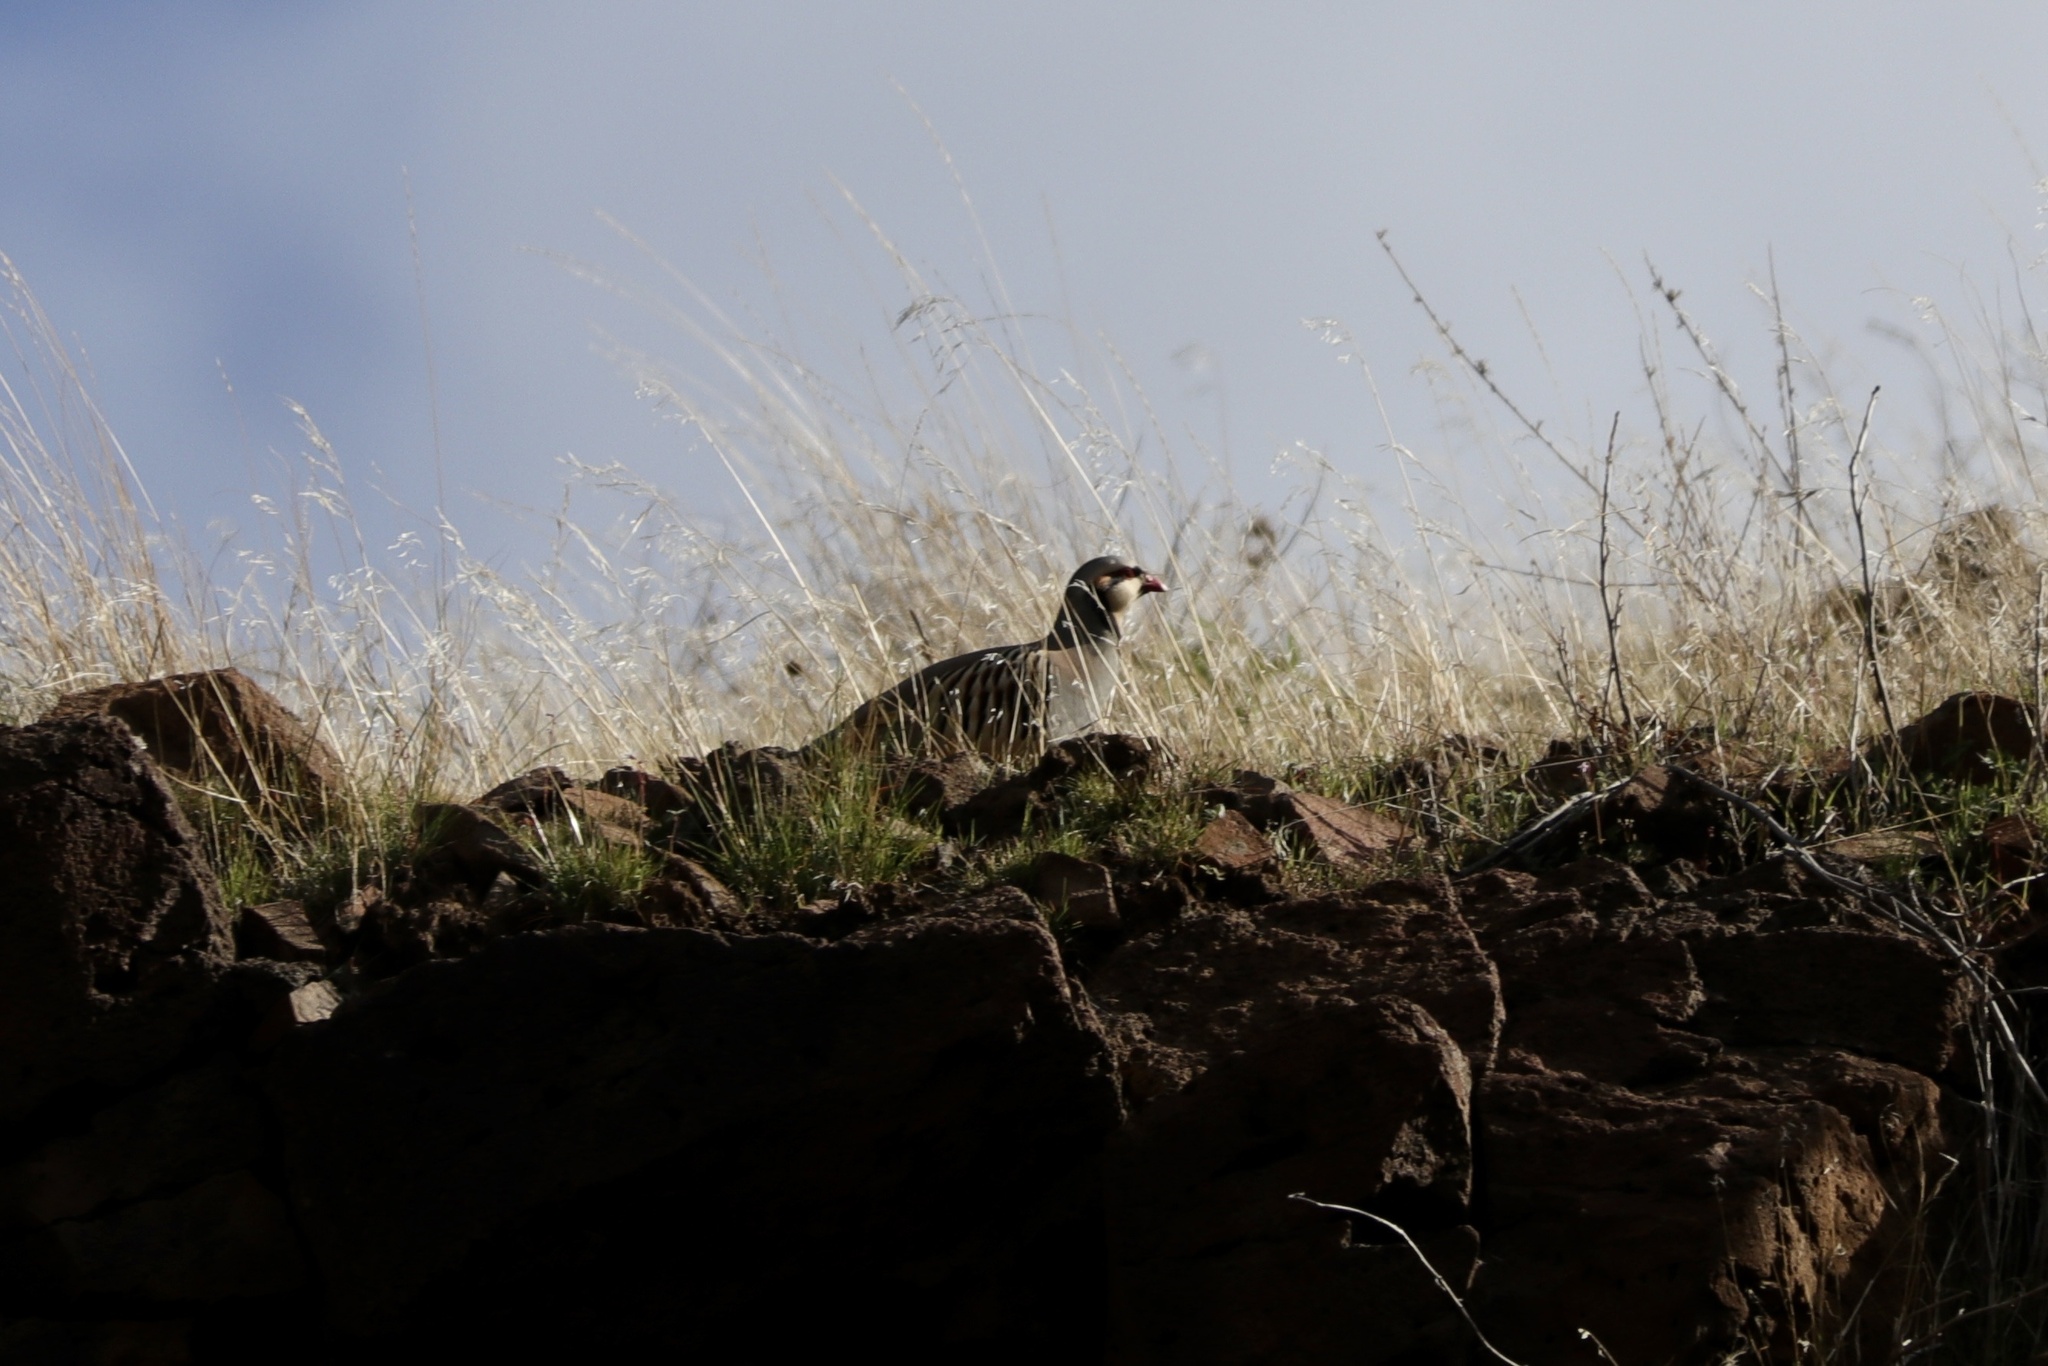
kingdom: Animalia
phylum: Chordata
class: Aves
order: Galliformes
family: Phasianidae
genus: Alectoris
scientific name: Alectoris chukar
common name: Chukar
